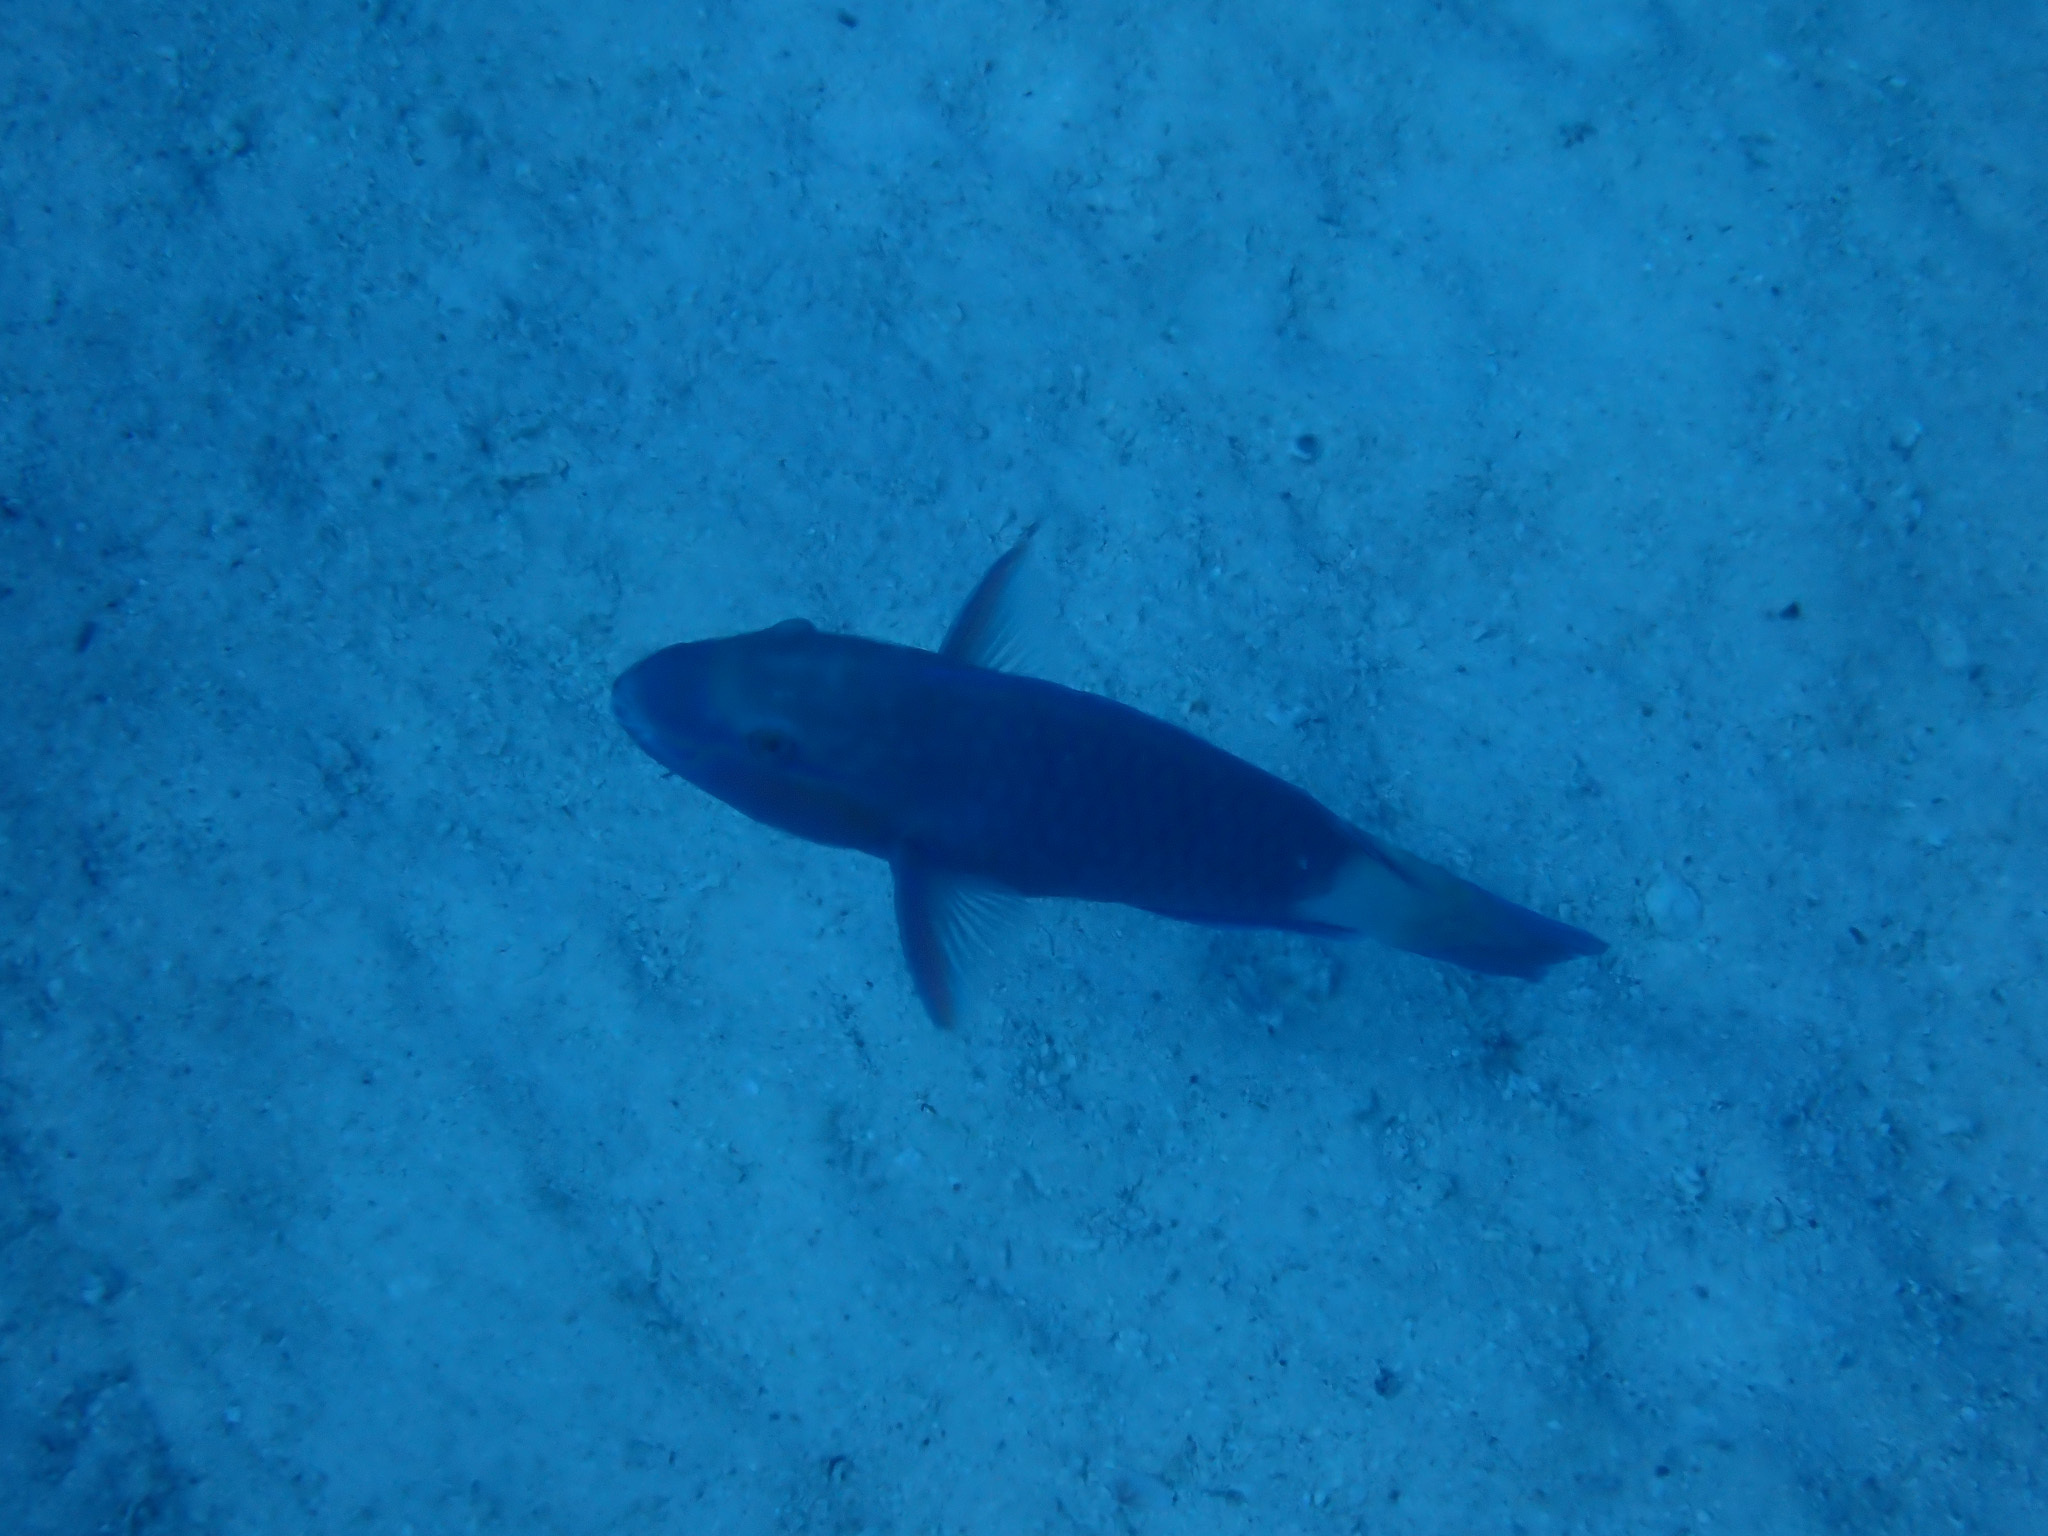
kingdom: Animalia
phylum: Chordata
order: Perciformes
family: Scaridae
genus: Chlorurus
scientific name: Chlorurus sordidus
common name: Bullethead parrotfish
